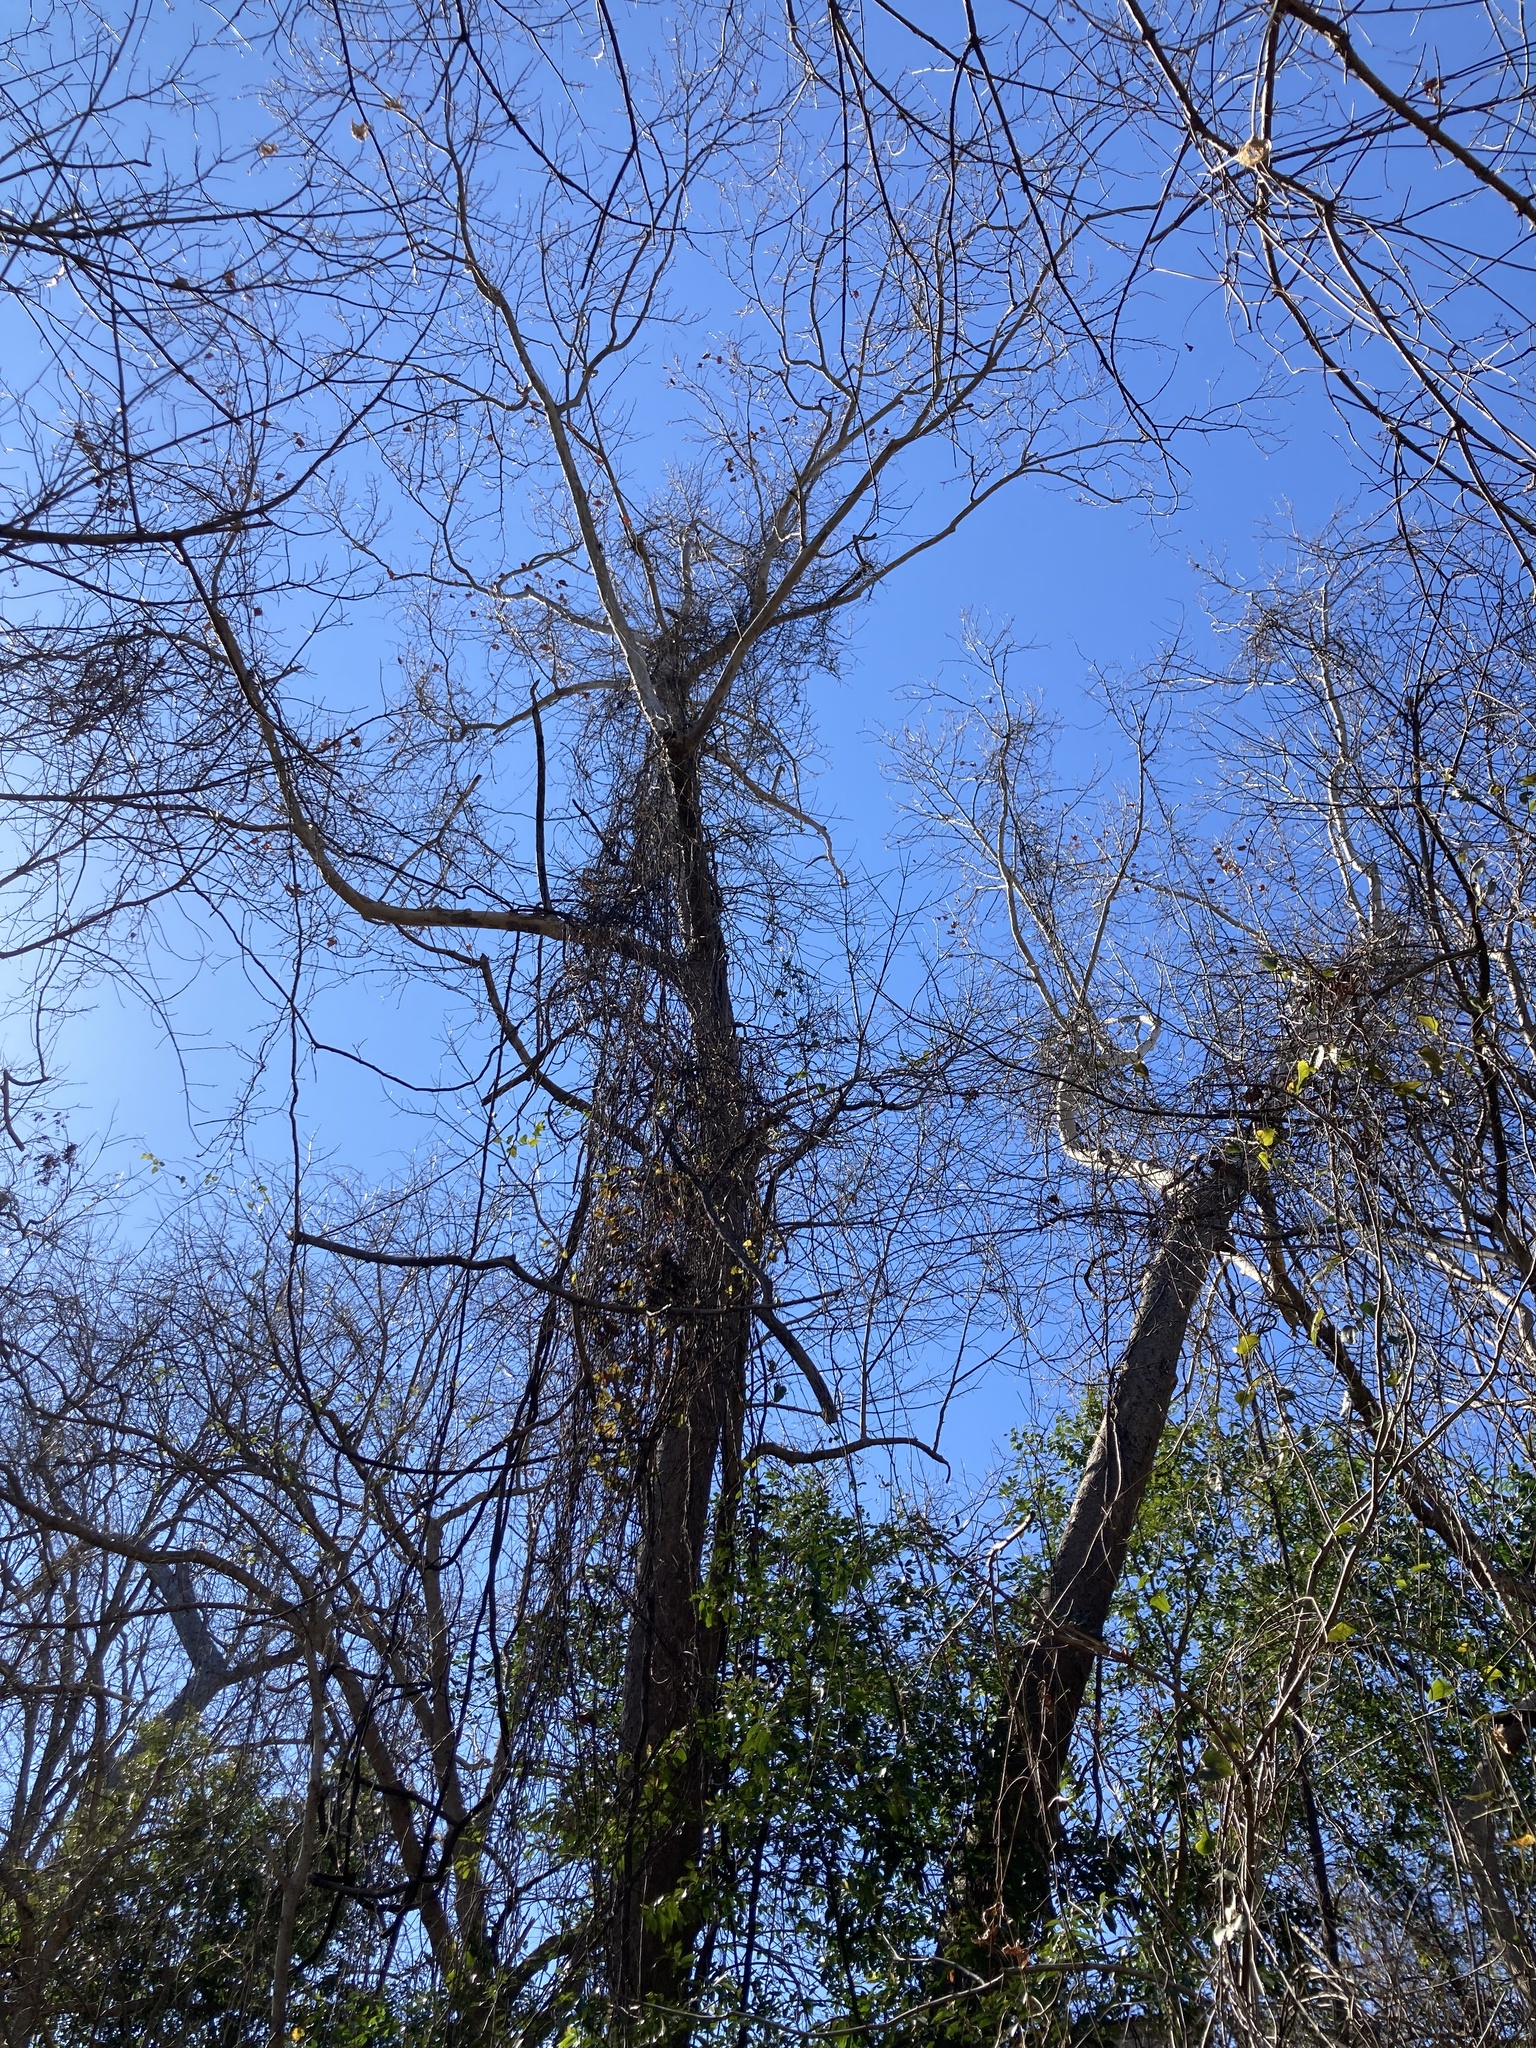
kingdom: Plantae
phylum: Tracheophyta
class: Magnoliopsida
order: Proteales
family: Platanaceae
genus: Platanus
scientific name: Platanus occidentalis
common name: American sycamore
